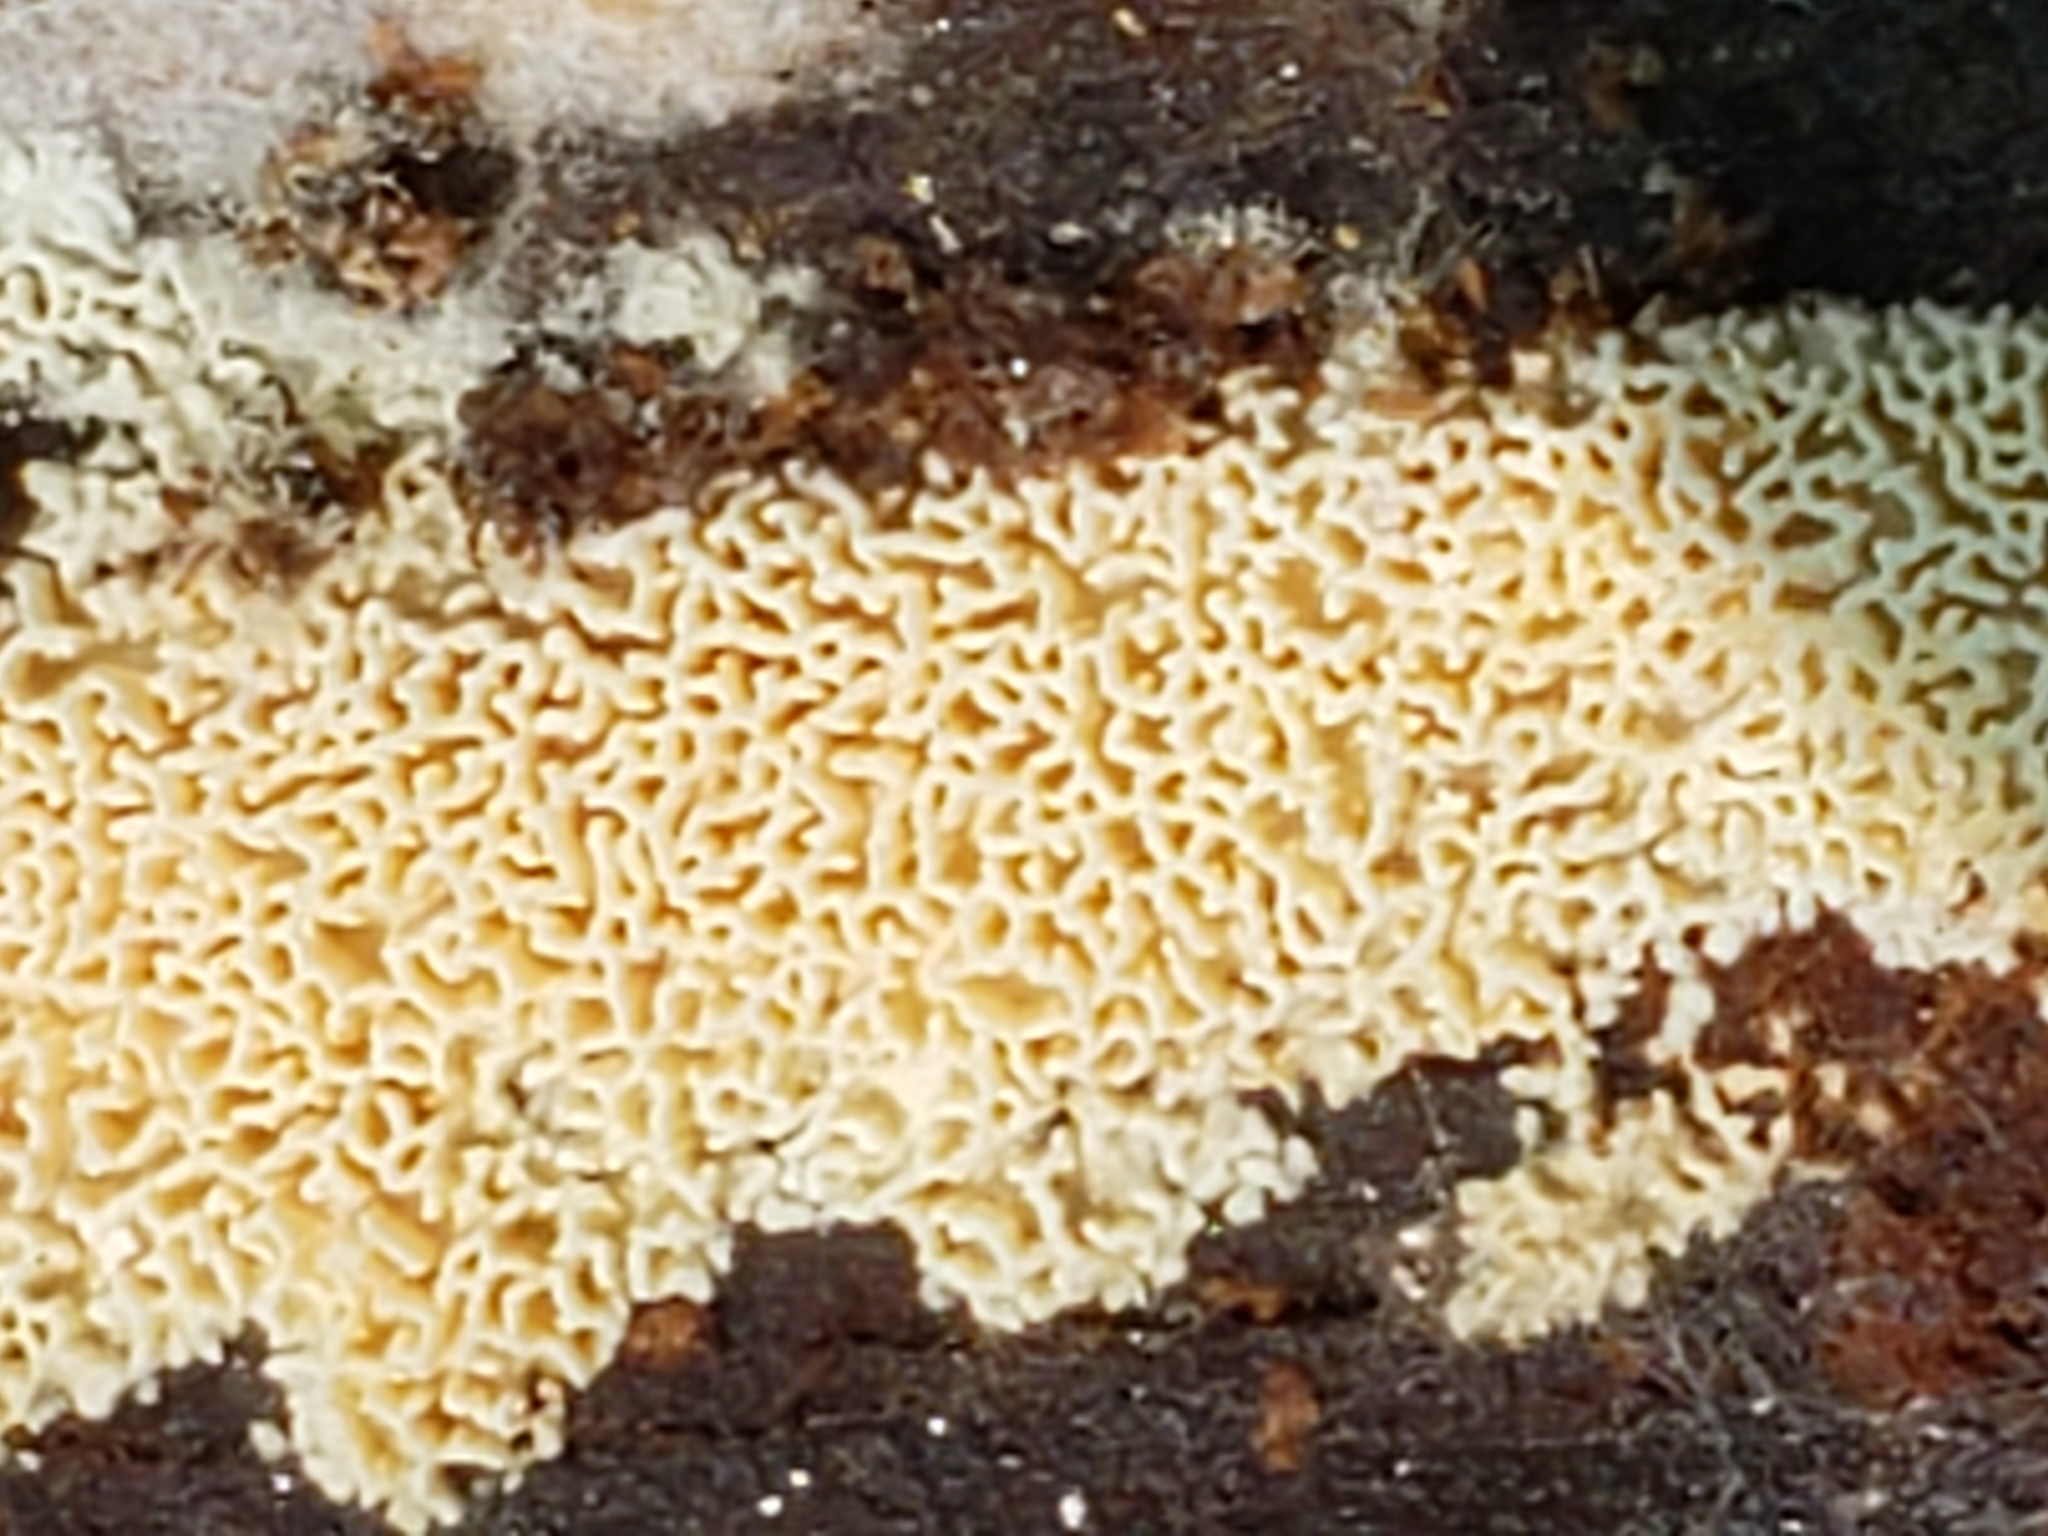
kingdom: Fungi
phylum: Basidiomycota
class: Agaricomycetes
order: Hymenochaetales
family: Schizoporaceae
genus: Schizopora
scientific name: Schizopora paradoxa
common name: Split porecrust
